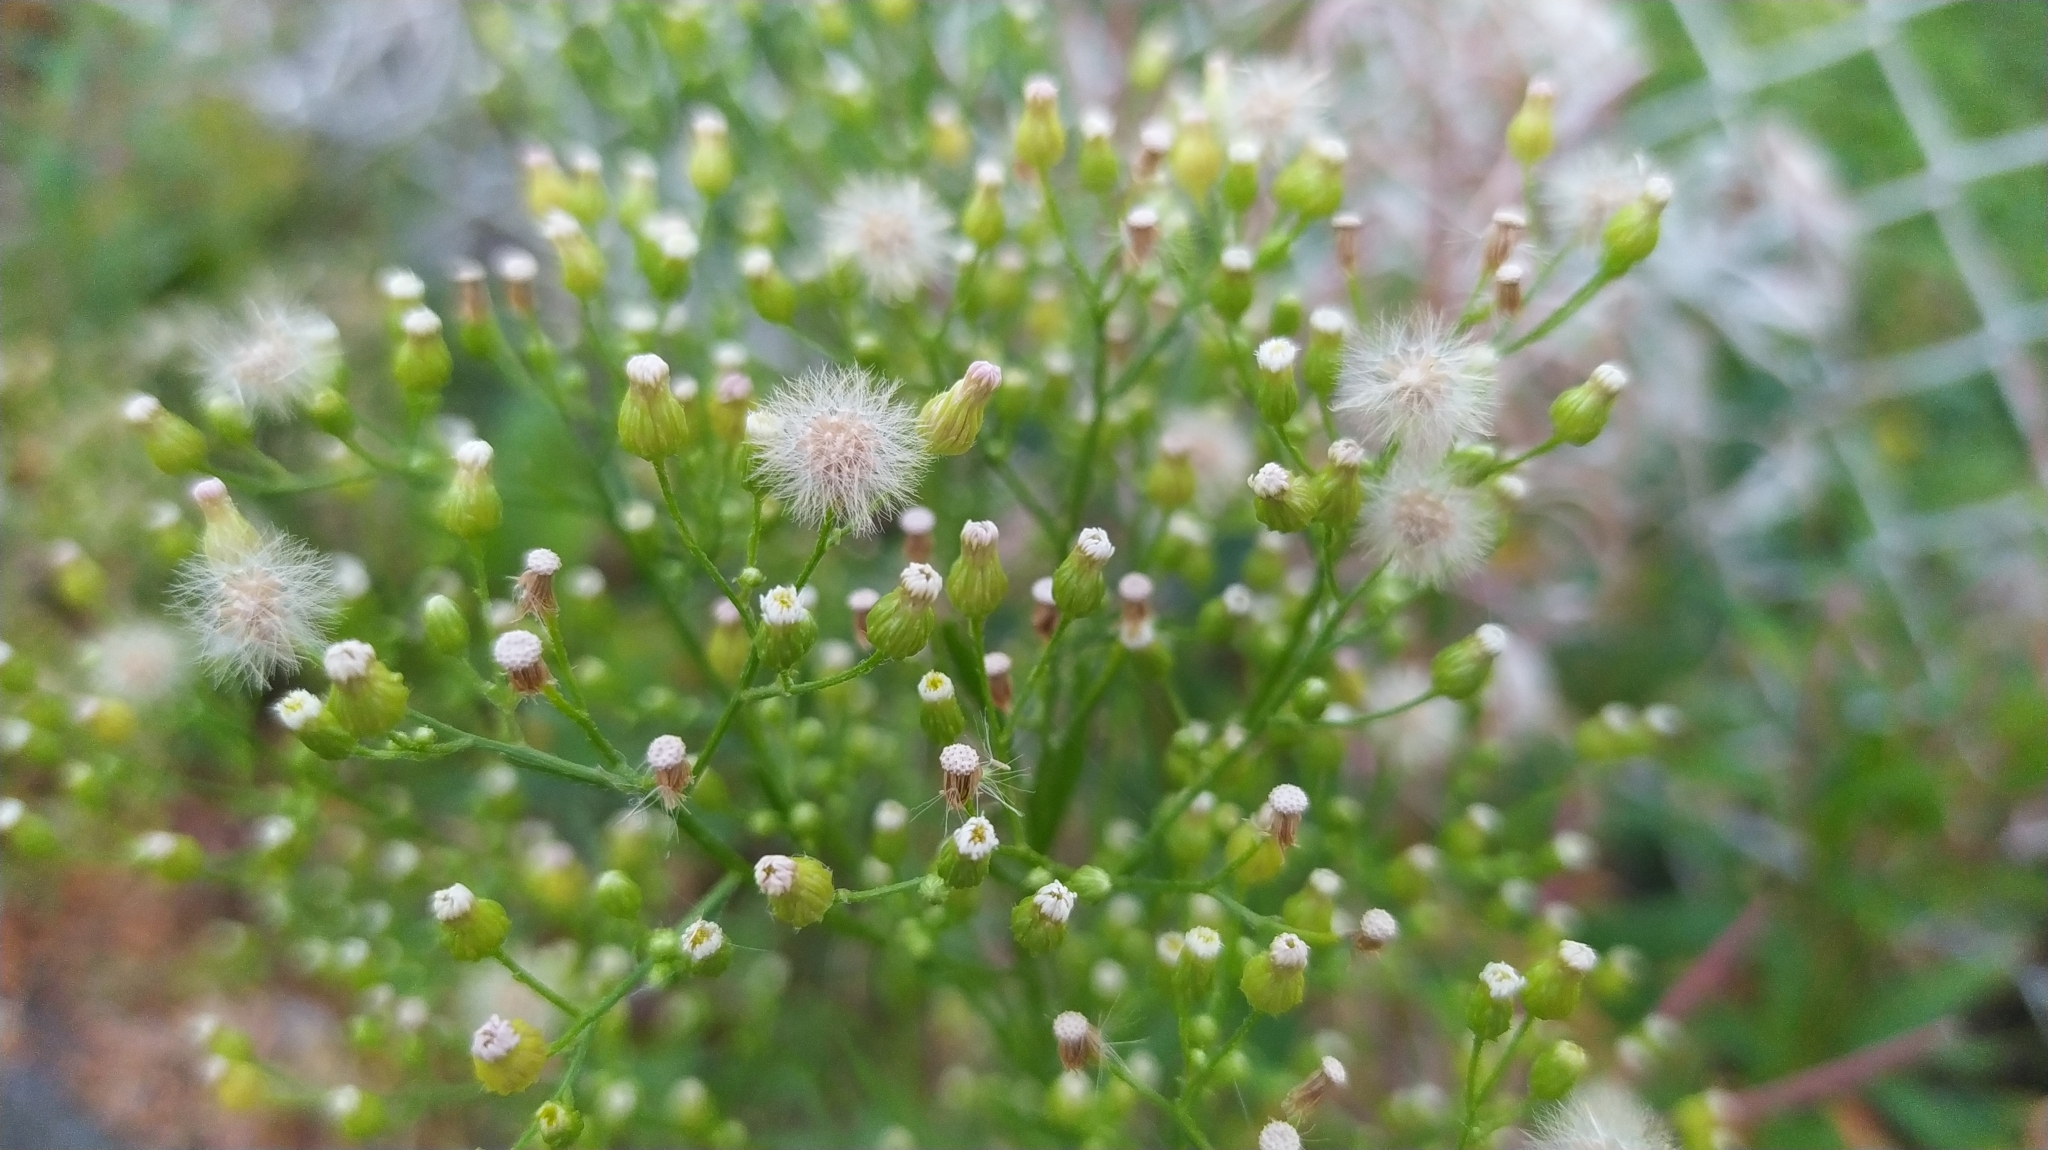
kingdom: Plantae
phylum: Tracheophyta
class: Magnoliopsida
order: Asterales
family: Asteraceae
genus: Erigeron
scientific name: Erigeron canadensis
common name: Canadian fleabane
